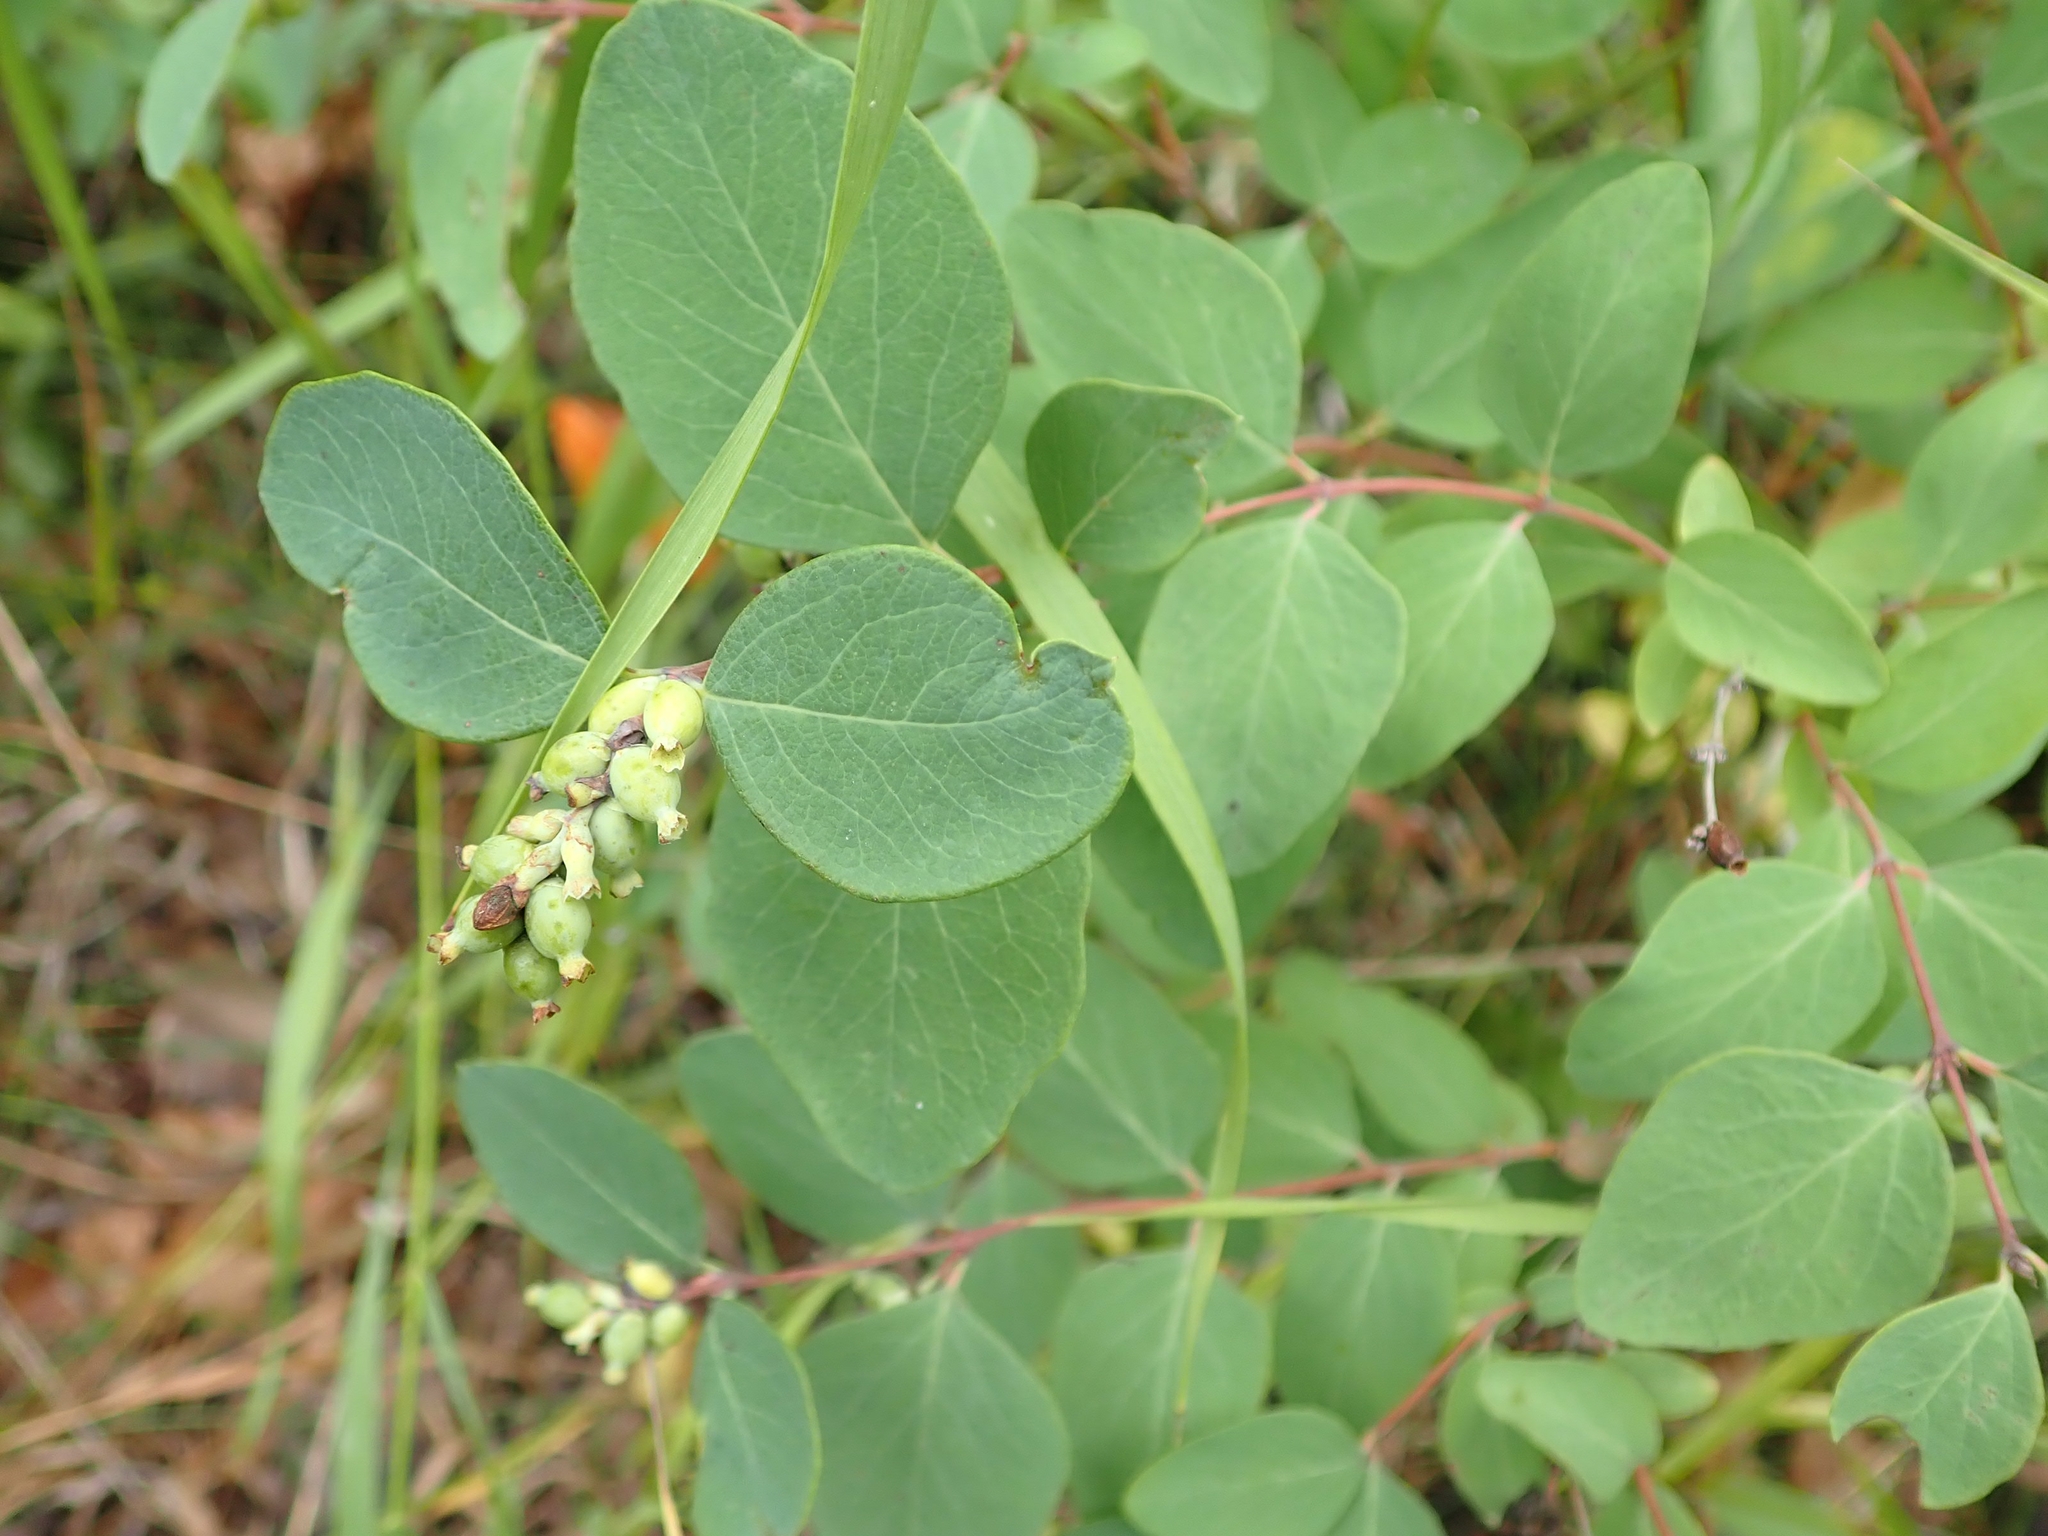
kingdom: Plantae
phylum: Tracheophyta
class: Magnoliopsida
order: Dipsacales
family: Caprifoliaceae
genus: Symphoricarpos
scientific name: Symphoricarpos occidentalis
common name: Wolfberry
